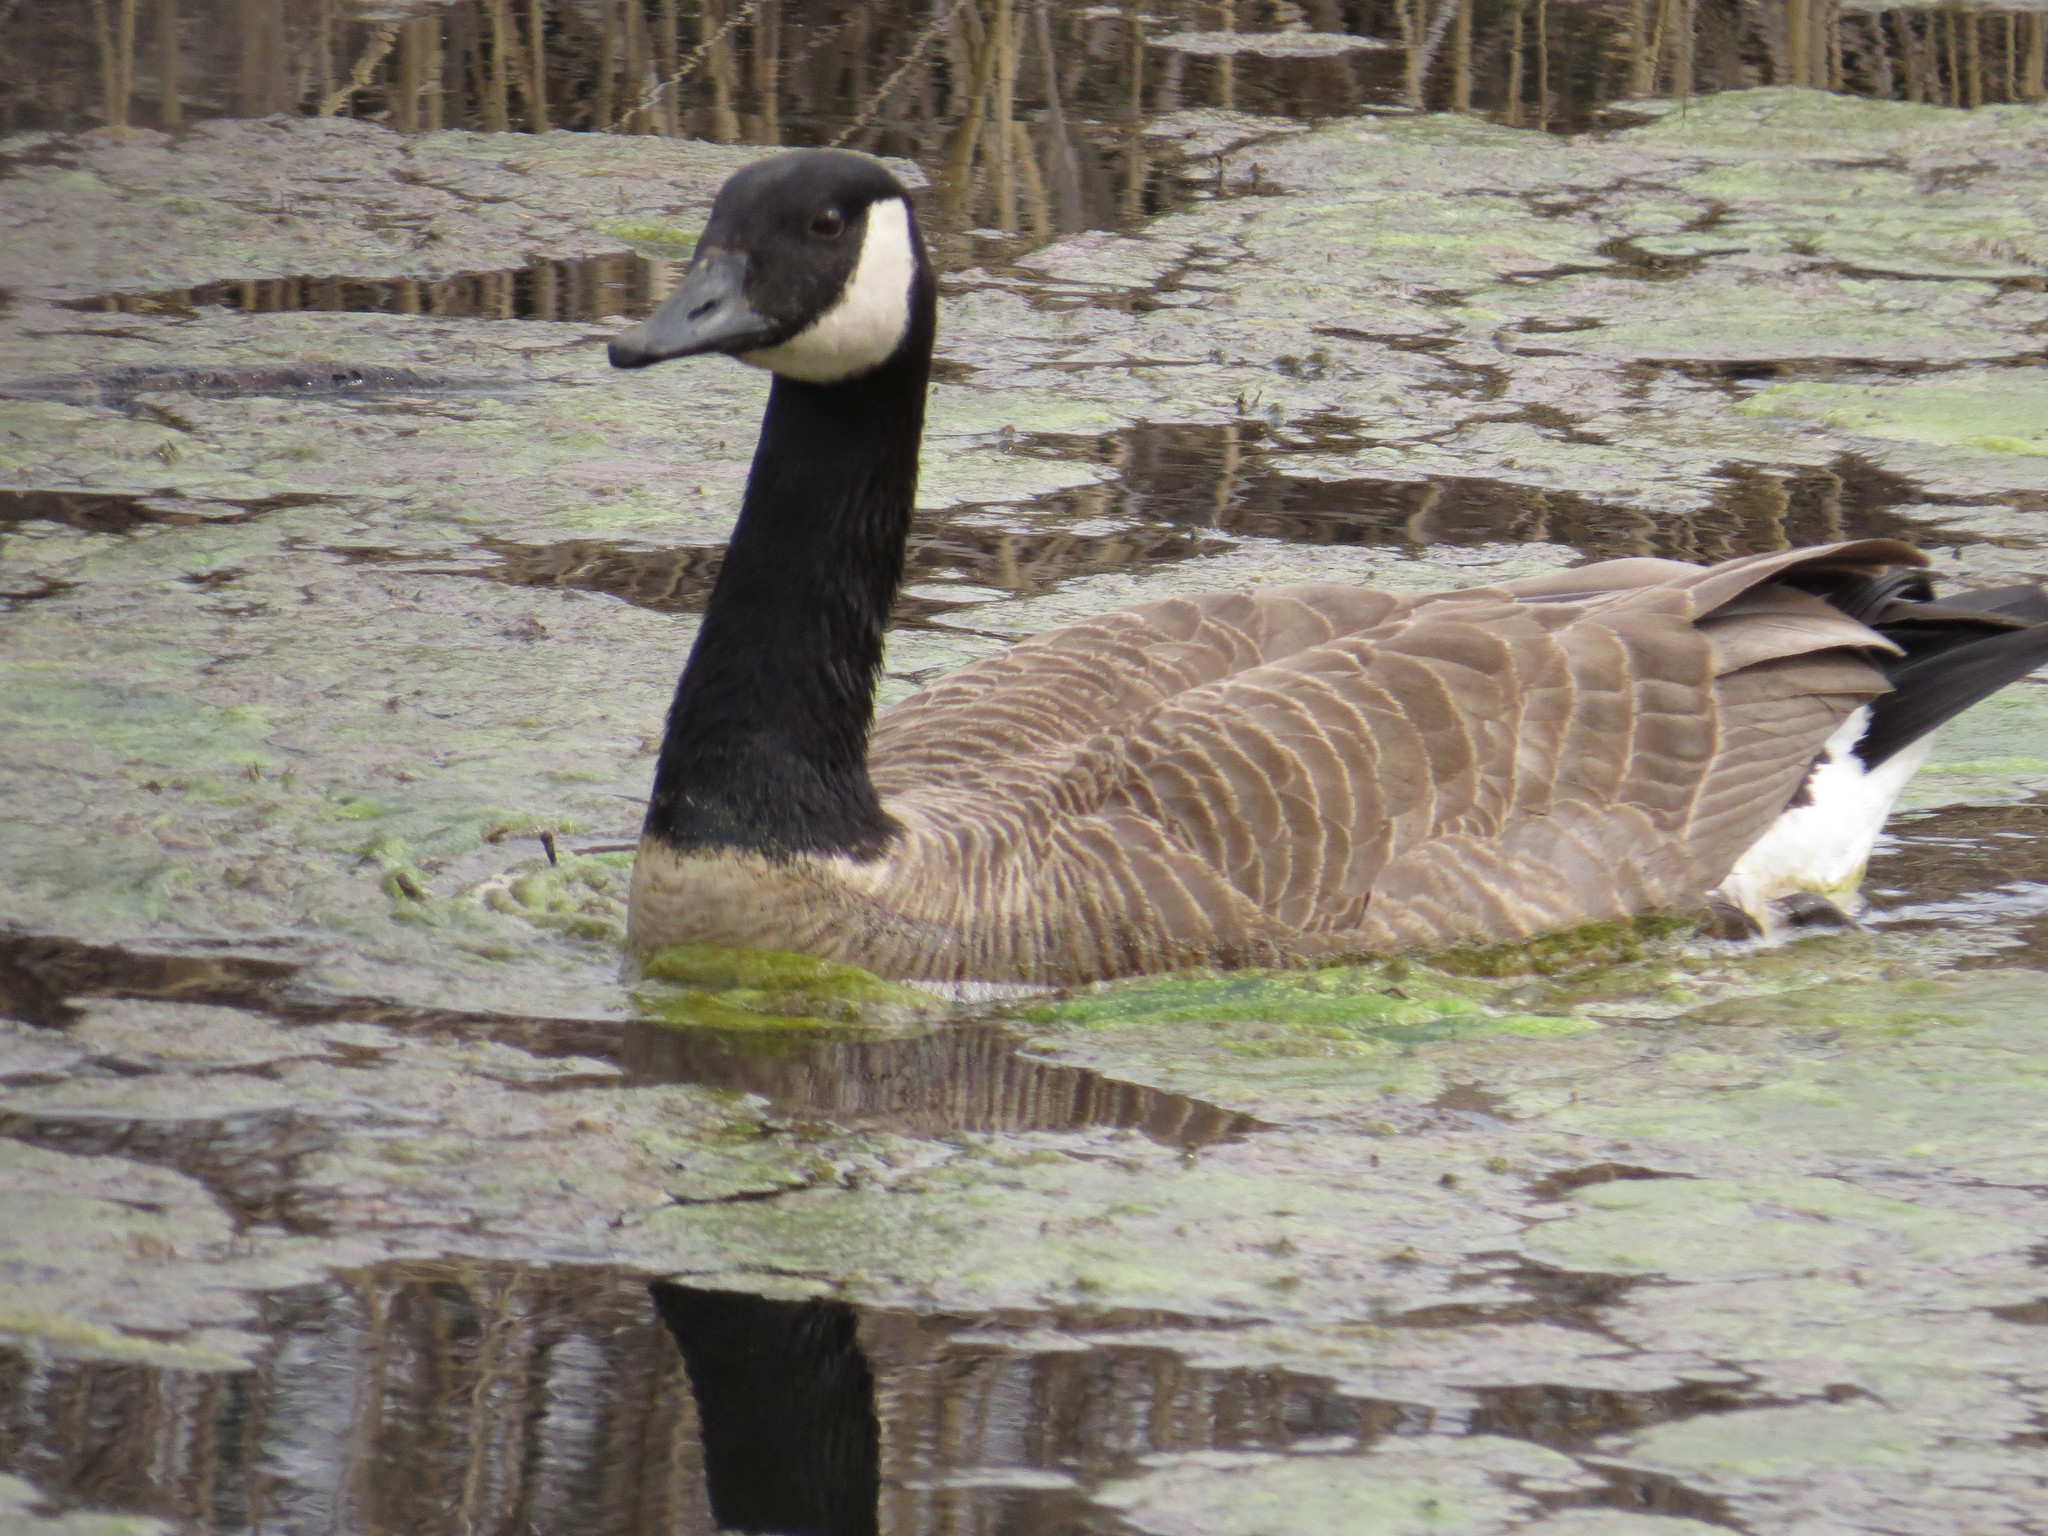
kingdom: Animalia
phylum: Chordata
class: Aves
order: Anseriformes
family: Anatidae
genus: Branta
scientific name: Branta canadensis
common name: Canada goose
